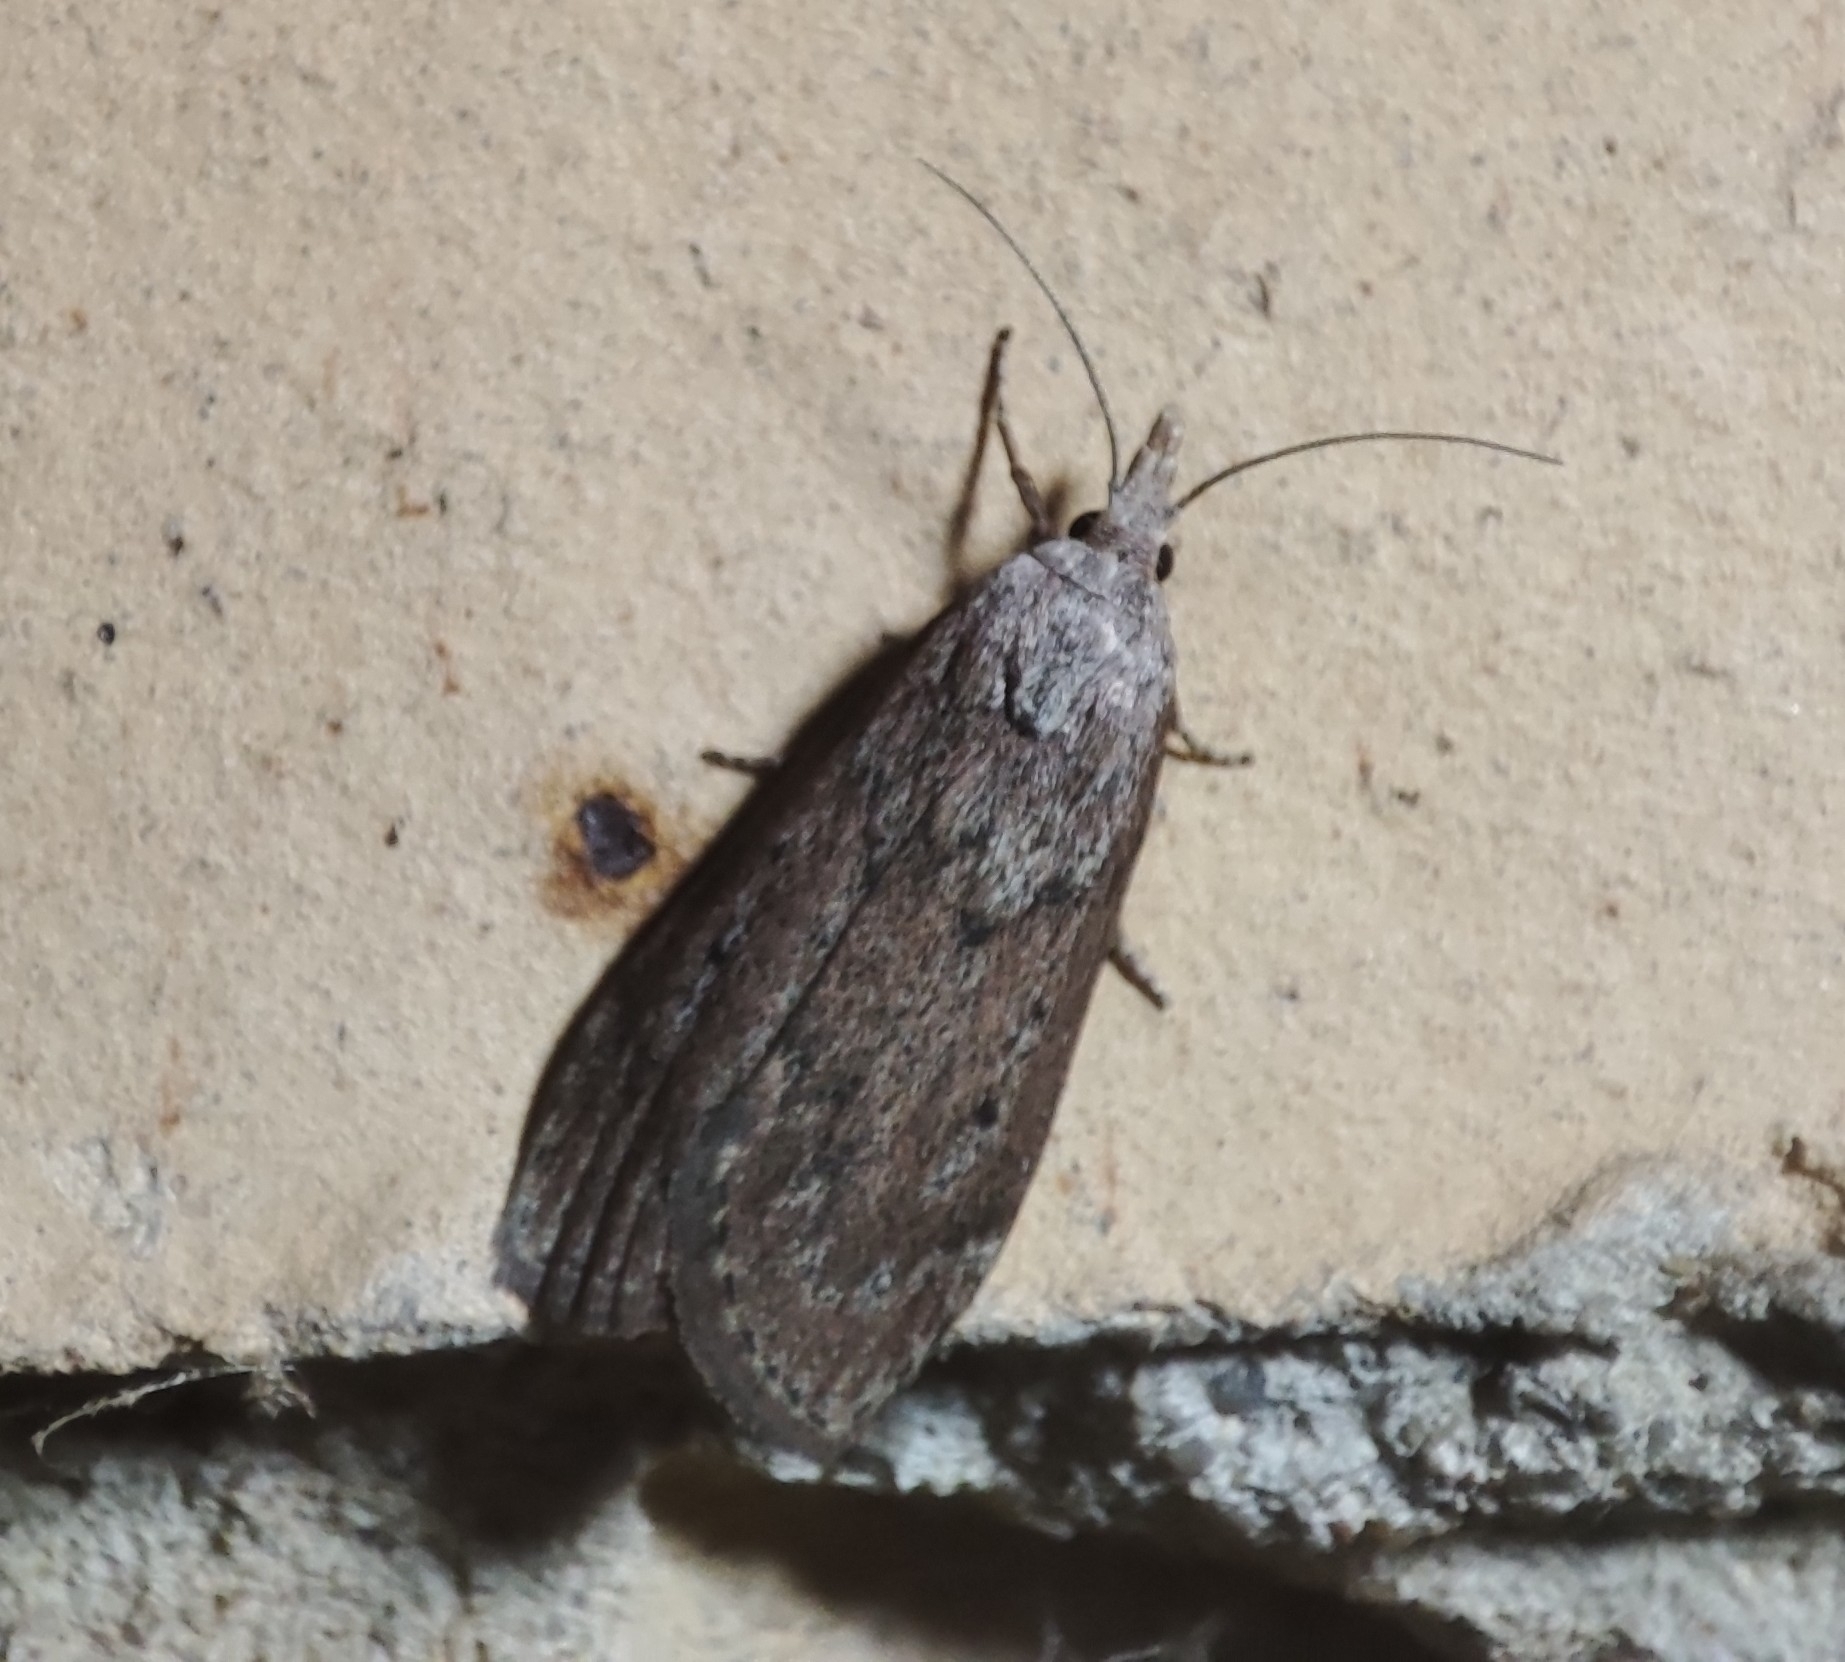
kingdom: Animalia
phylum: Arthropoda
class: Insecta
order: Lepidoptera
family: Pyralidae
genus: Aphomia
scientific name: Aphomia sociella
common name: Bee moth
